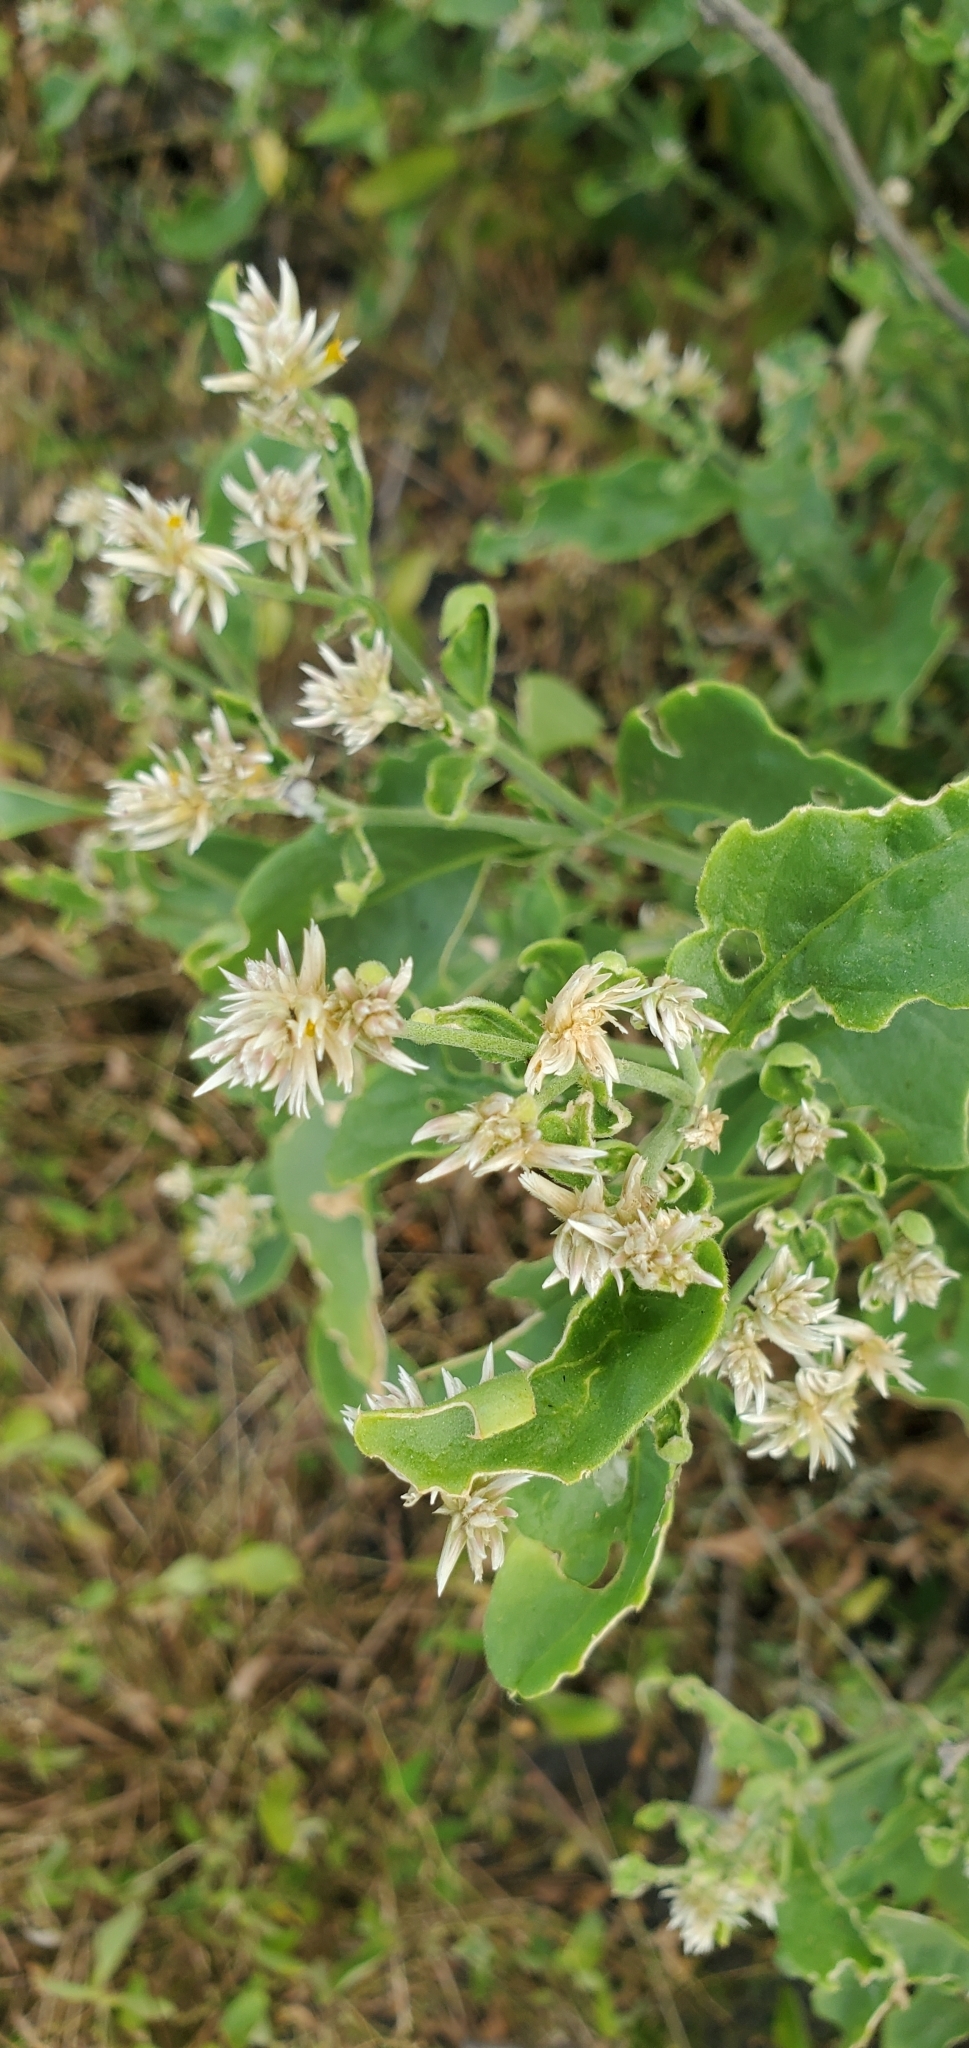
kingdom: Plantae
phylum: Tracheophyta
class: Magnoliopsida
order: Caryophyllales
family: Amaranthaceae
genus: Alternanthera
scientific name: Alternanthera echinocephala
